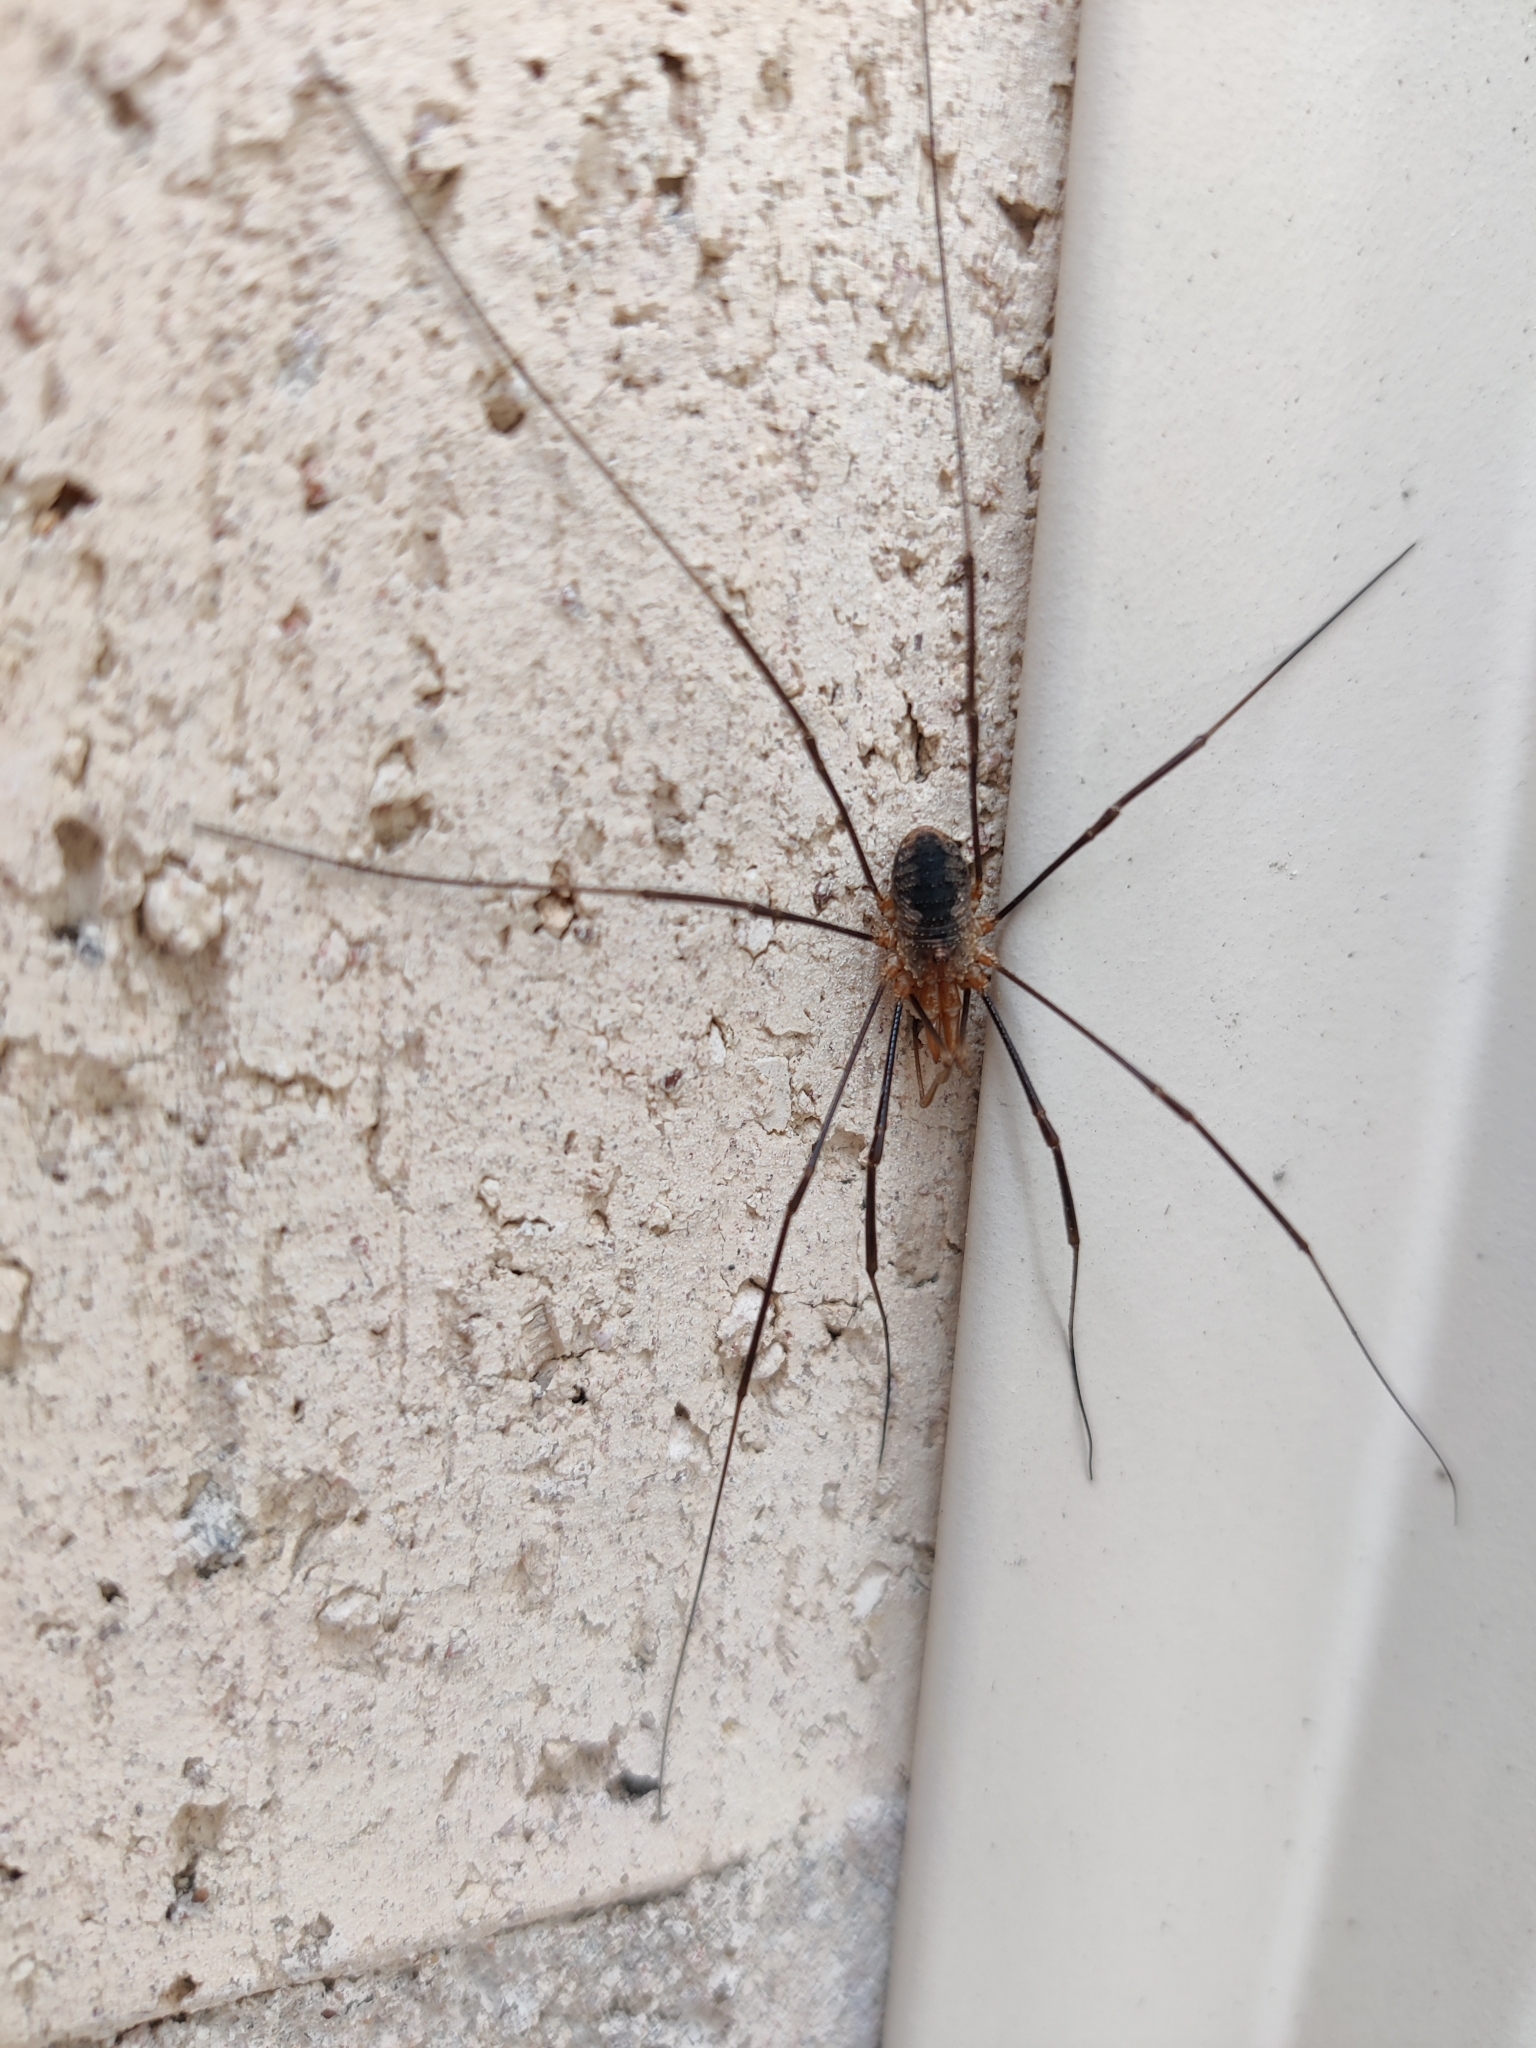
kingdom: Animalia
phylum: Arthropoda
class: Arachnida
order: Opiliones
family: Phalangiidae
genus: Phalangium
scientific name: Phalangium opilio
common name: Daddy longleg
